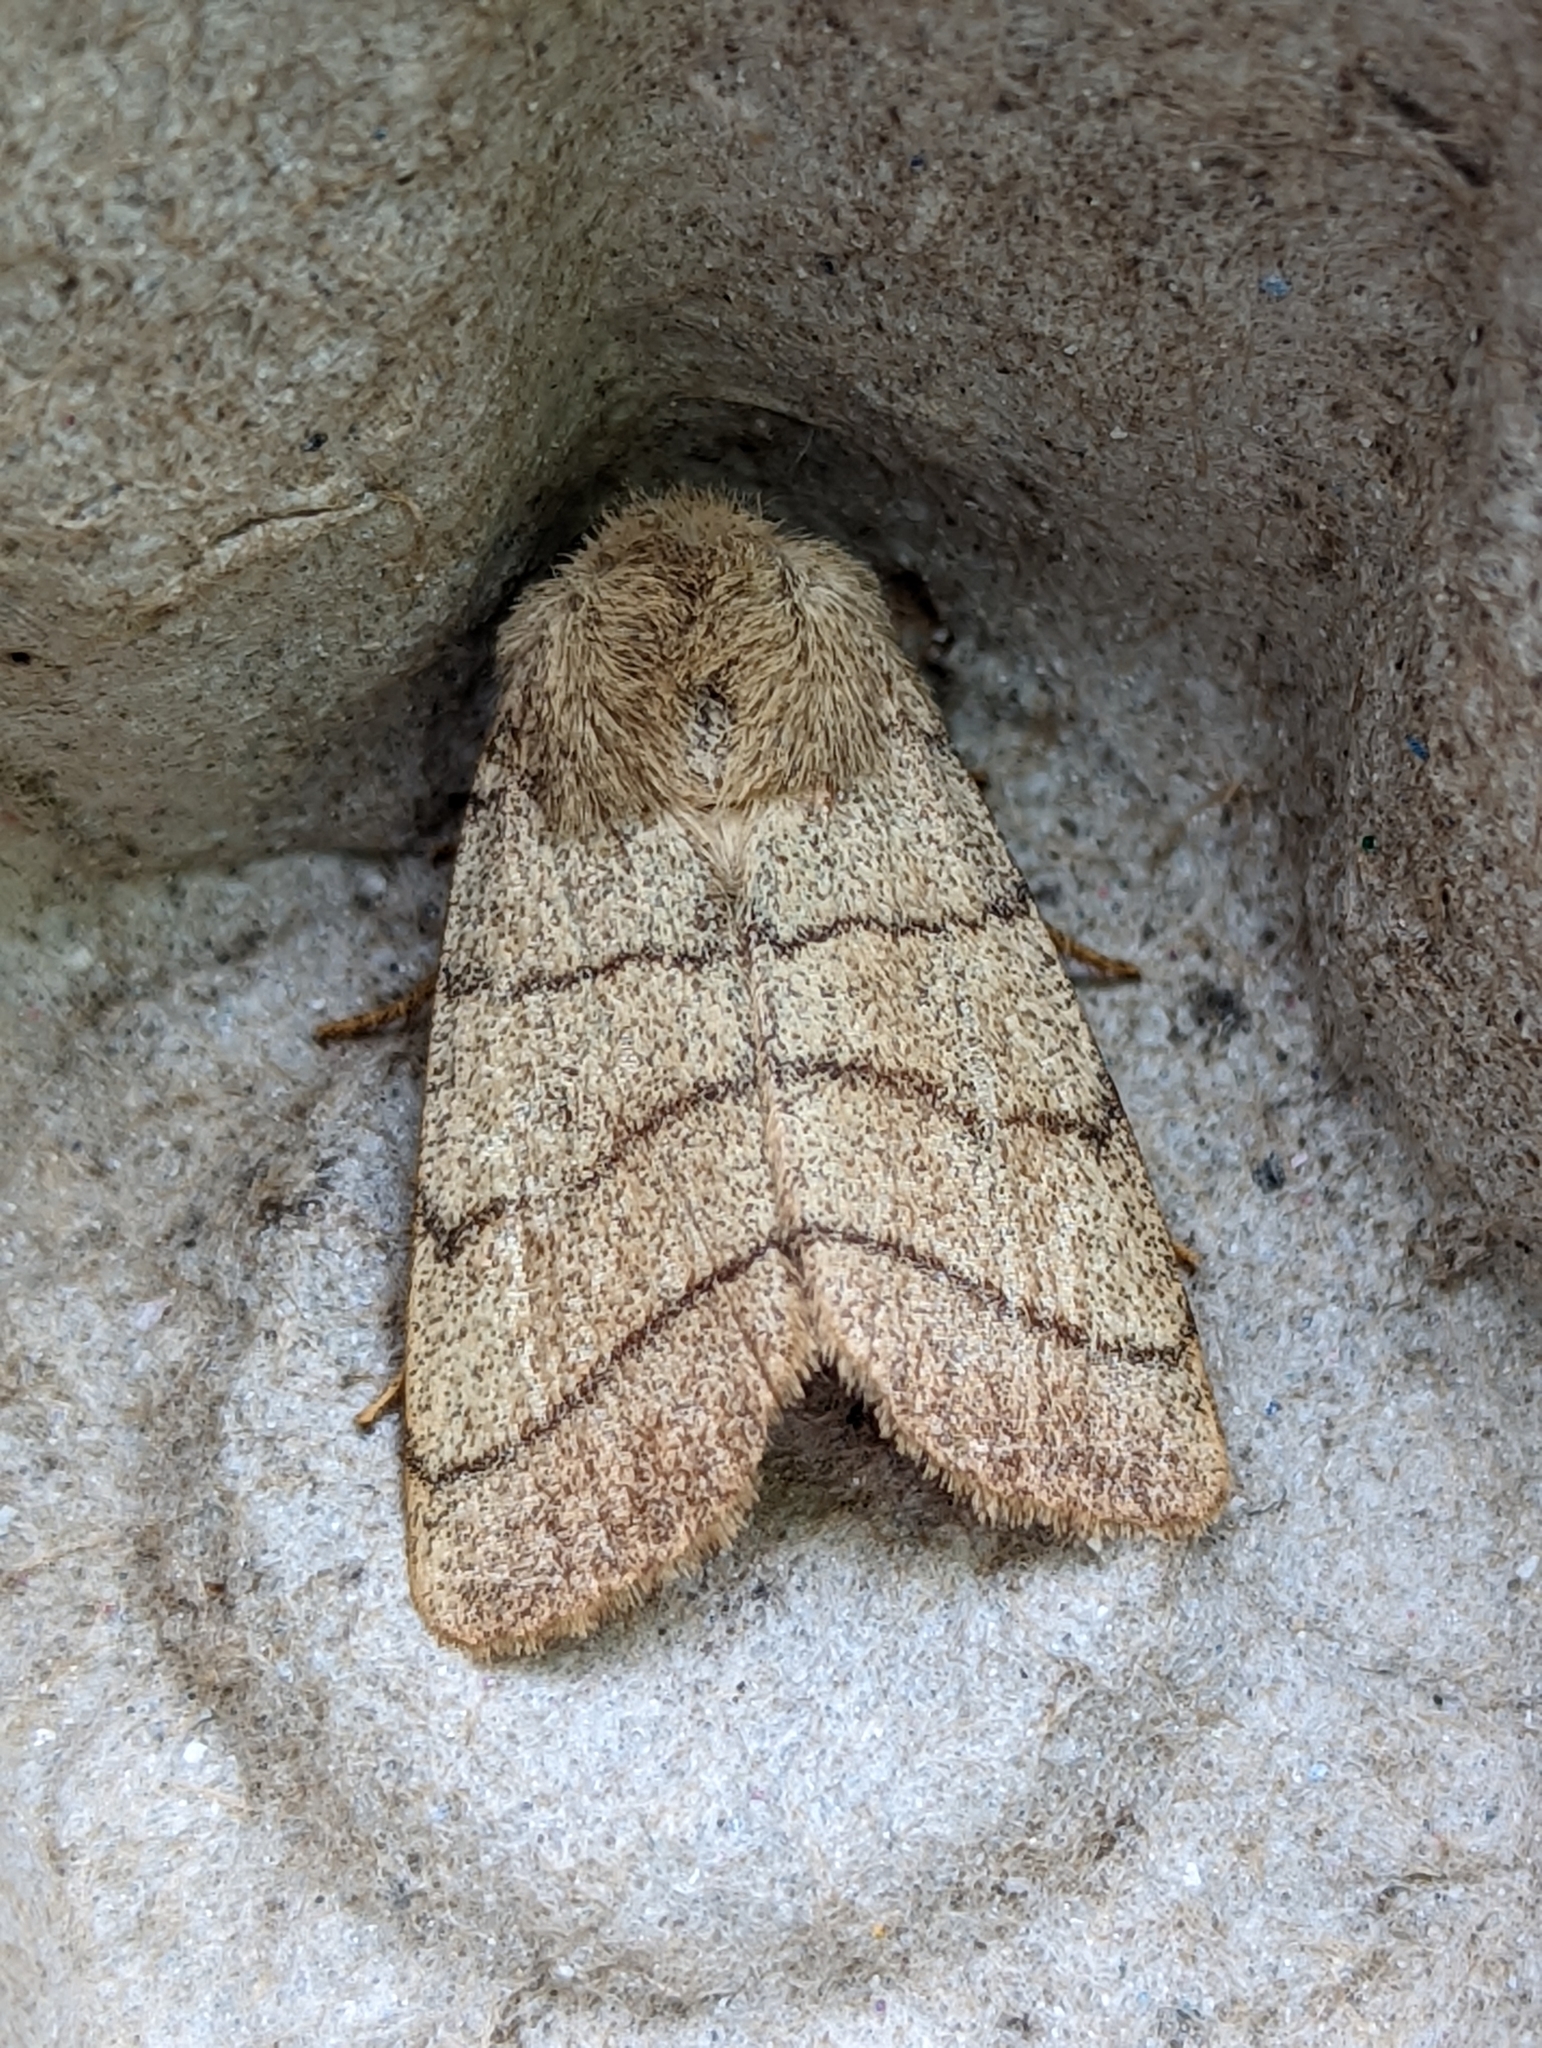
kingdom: Animalia
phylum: Arthropoda
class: Insecta
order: Lepidoptera
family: Noctuidae
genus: Charanyca
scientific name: Charanyca trigrammica
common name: Treble lines
